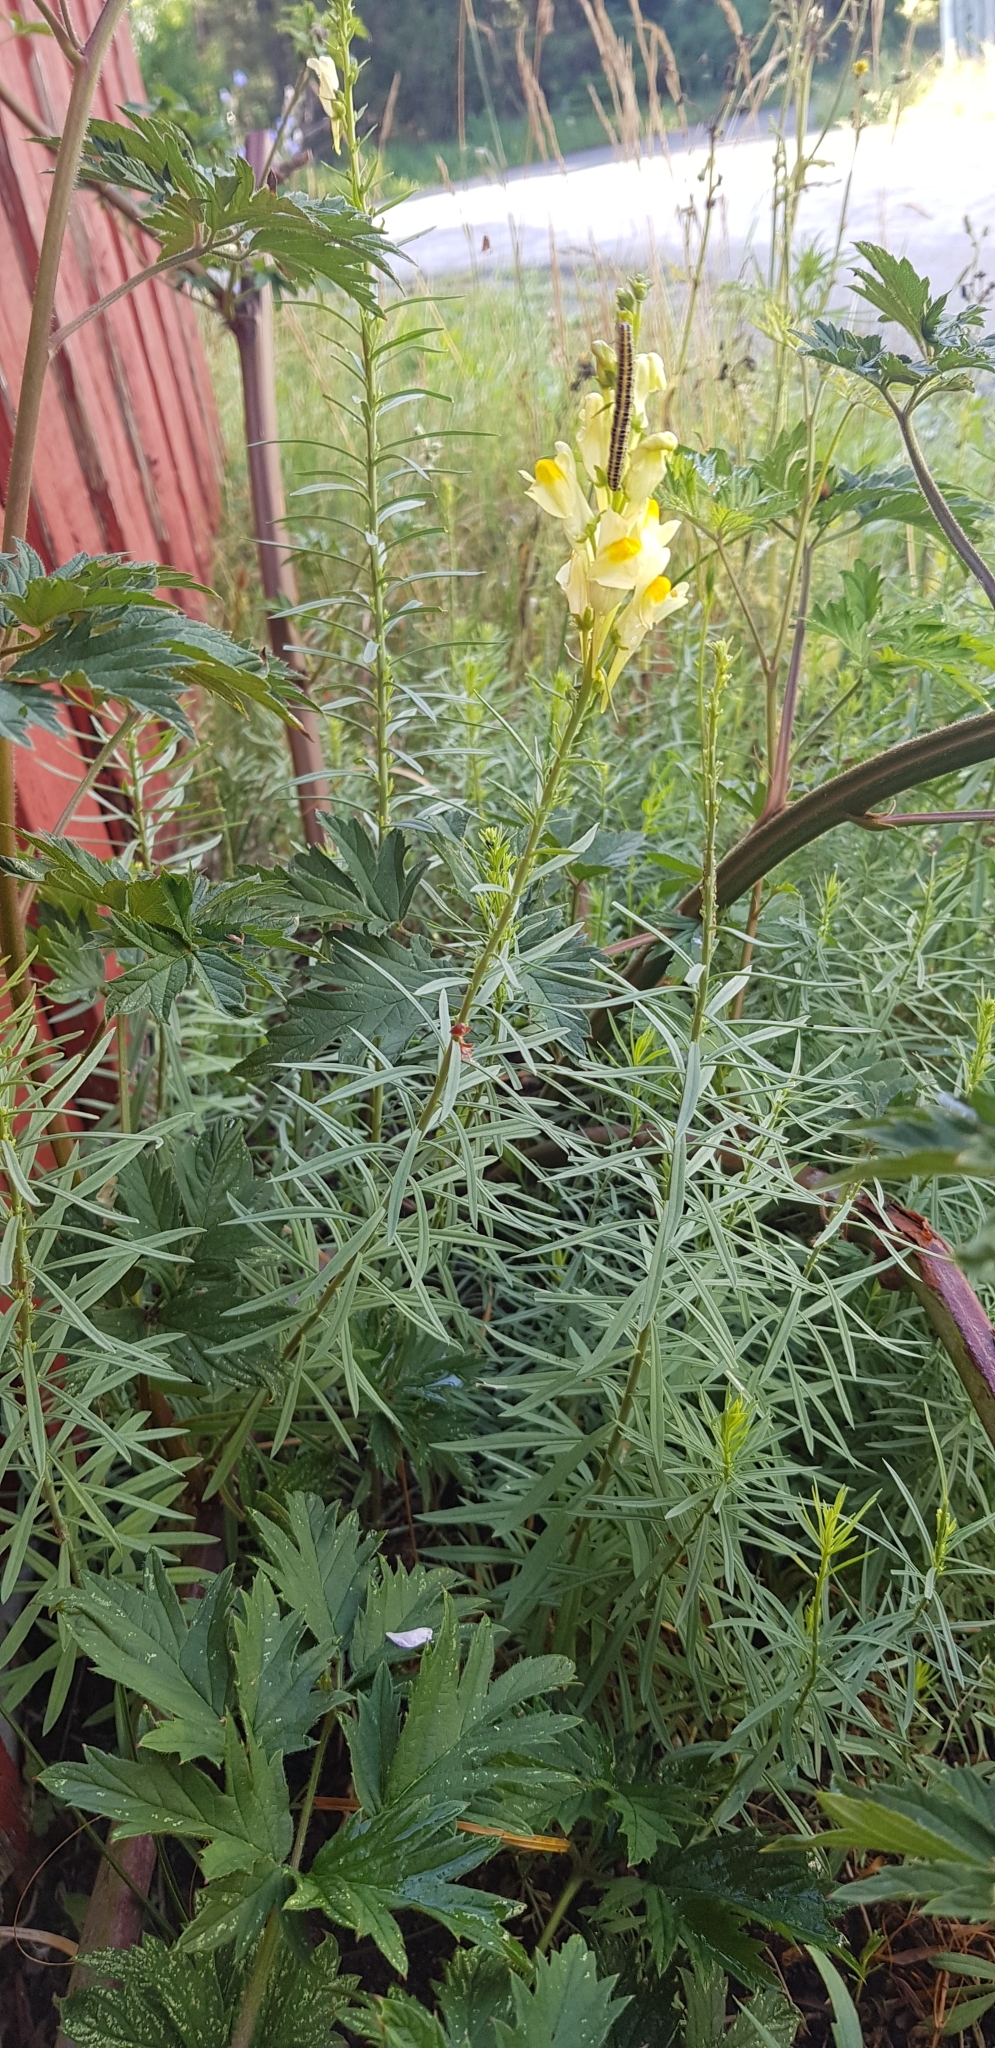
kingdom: Plantae
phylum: Tracheophyta
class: Magnoliopsida
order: Lamiales
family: Plantaginaceae
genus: Linaria
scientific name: Linaria vulgaris
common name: Butter and eggs
